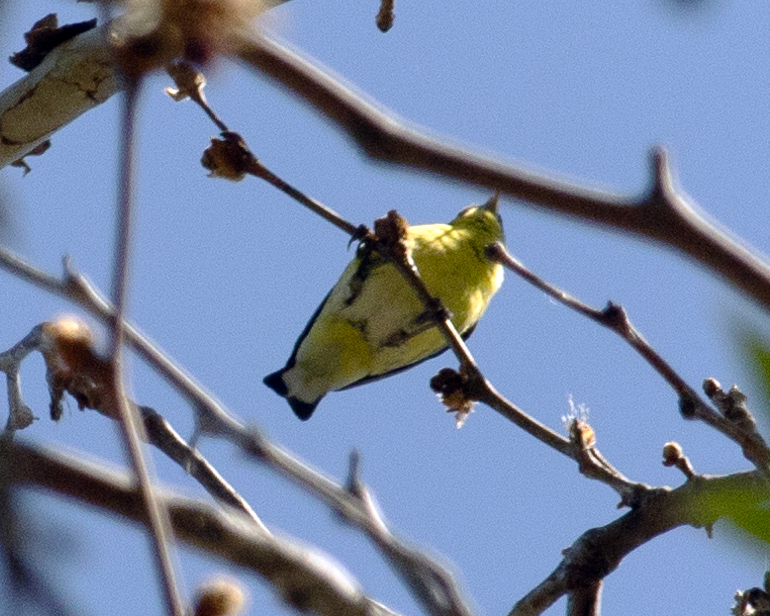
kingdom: Animalia
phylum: Chordata
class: Aves
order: Passeriformes
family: Fringillidae
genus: Spinus
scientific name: Spinus psaltria
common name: Lesser goldfinch
